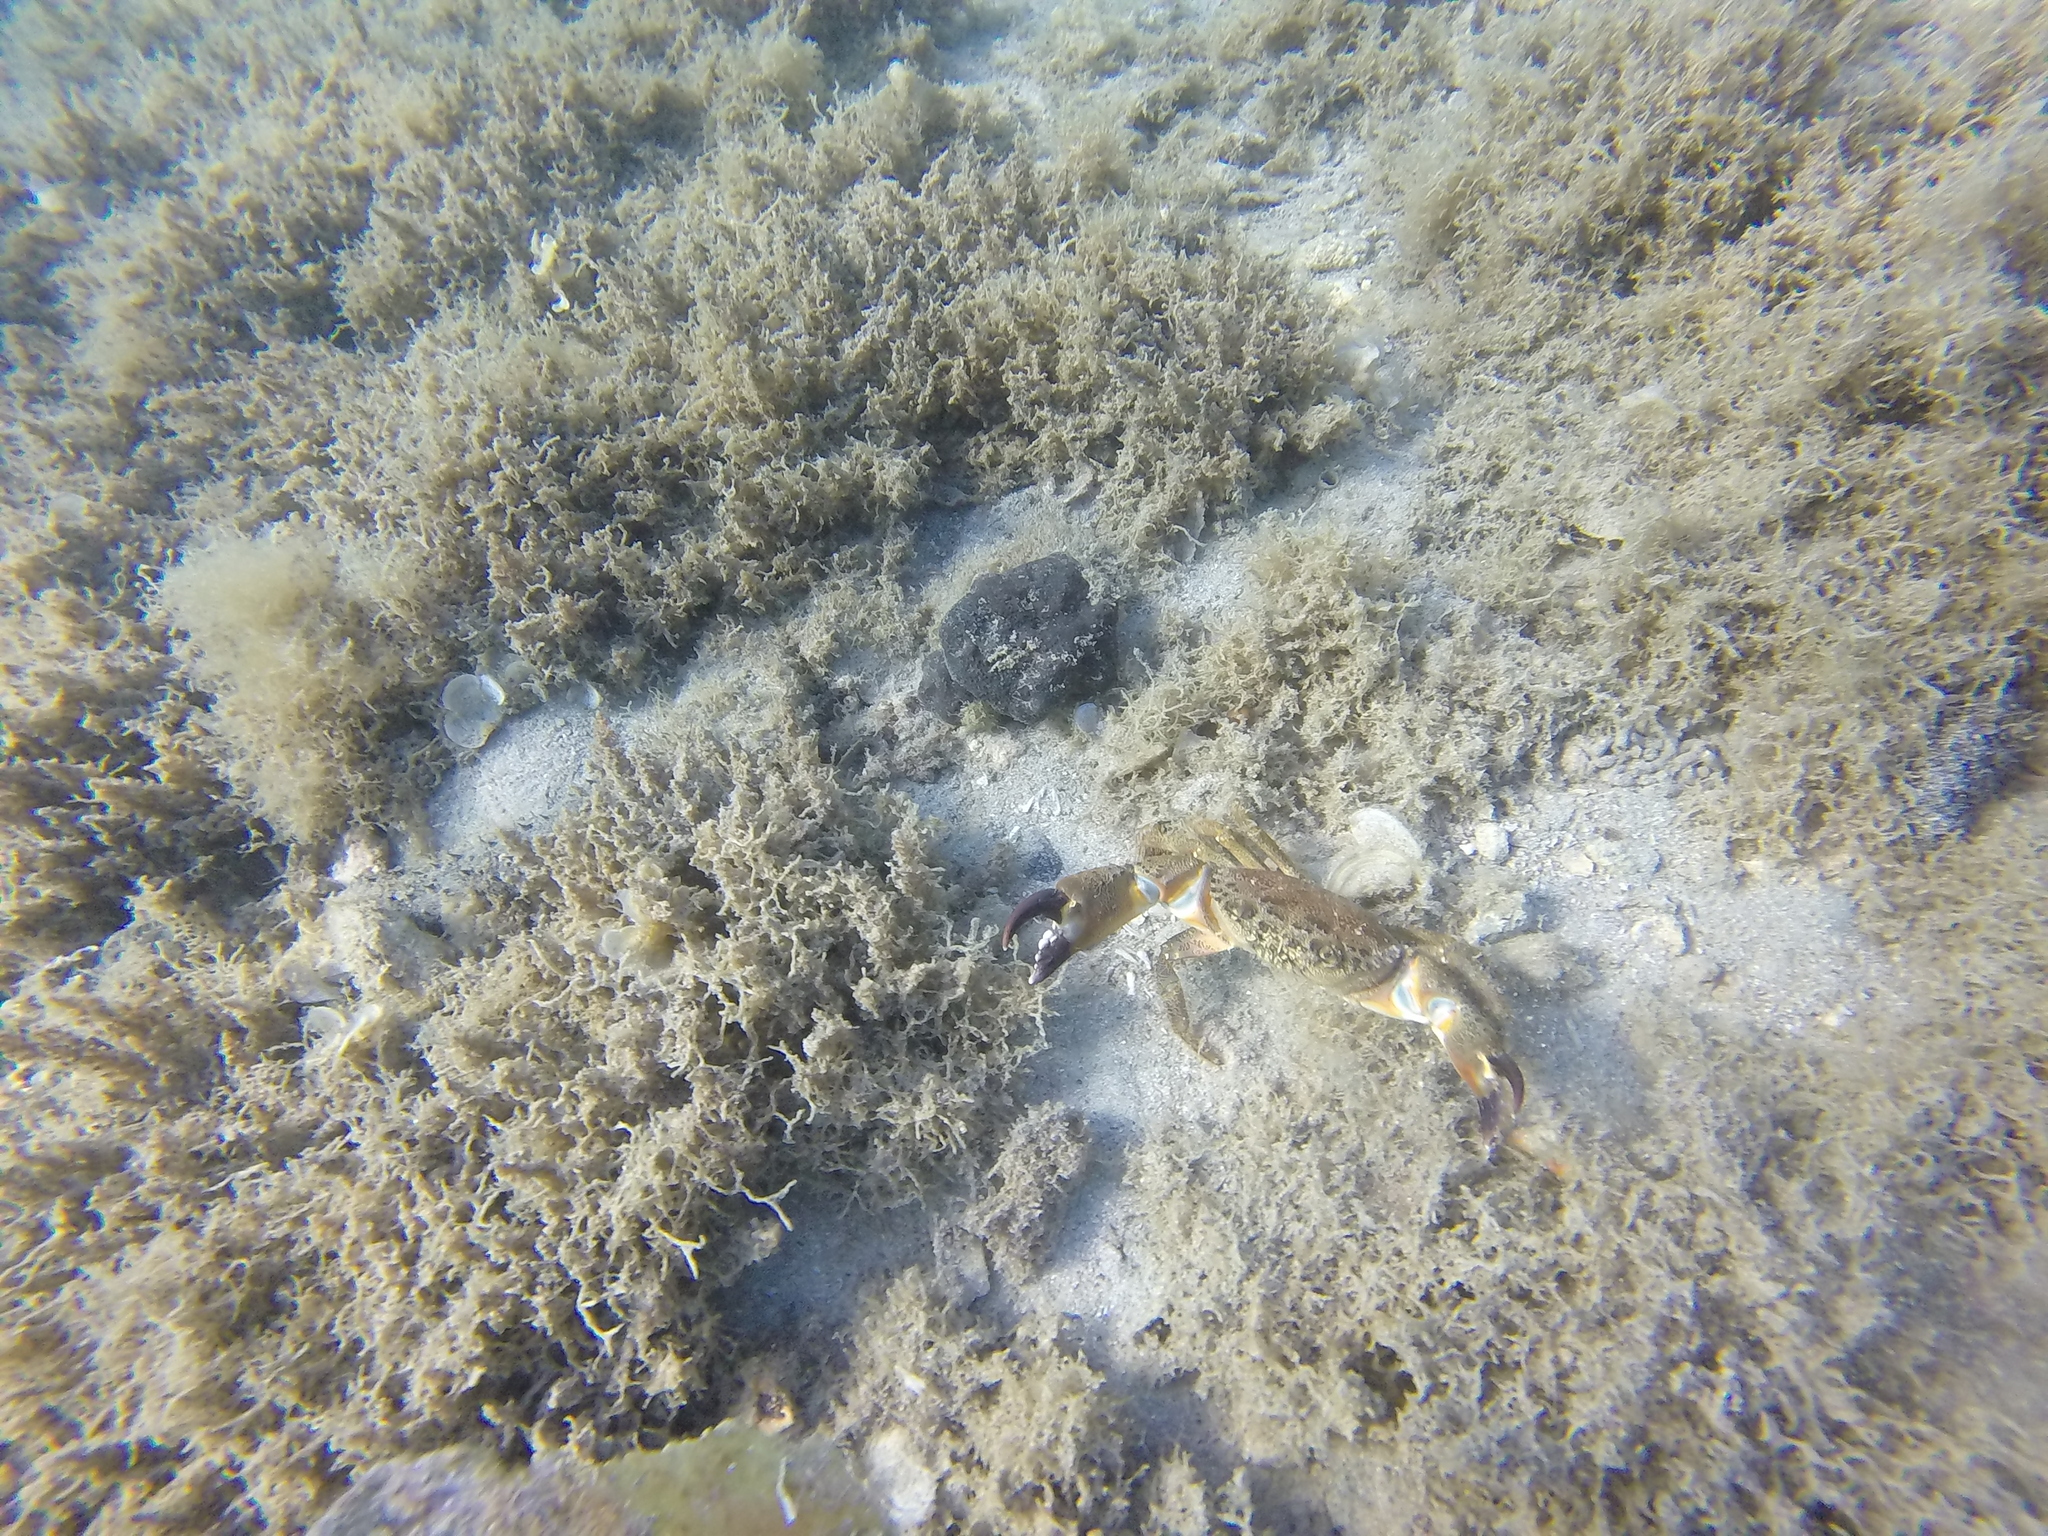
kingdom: Animalia
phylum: Arthropoda
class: Malacostraca
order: Decapoda
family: Eriphiidae
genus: Eriphia
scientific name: Eriphia verrucosa
